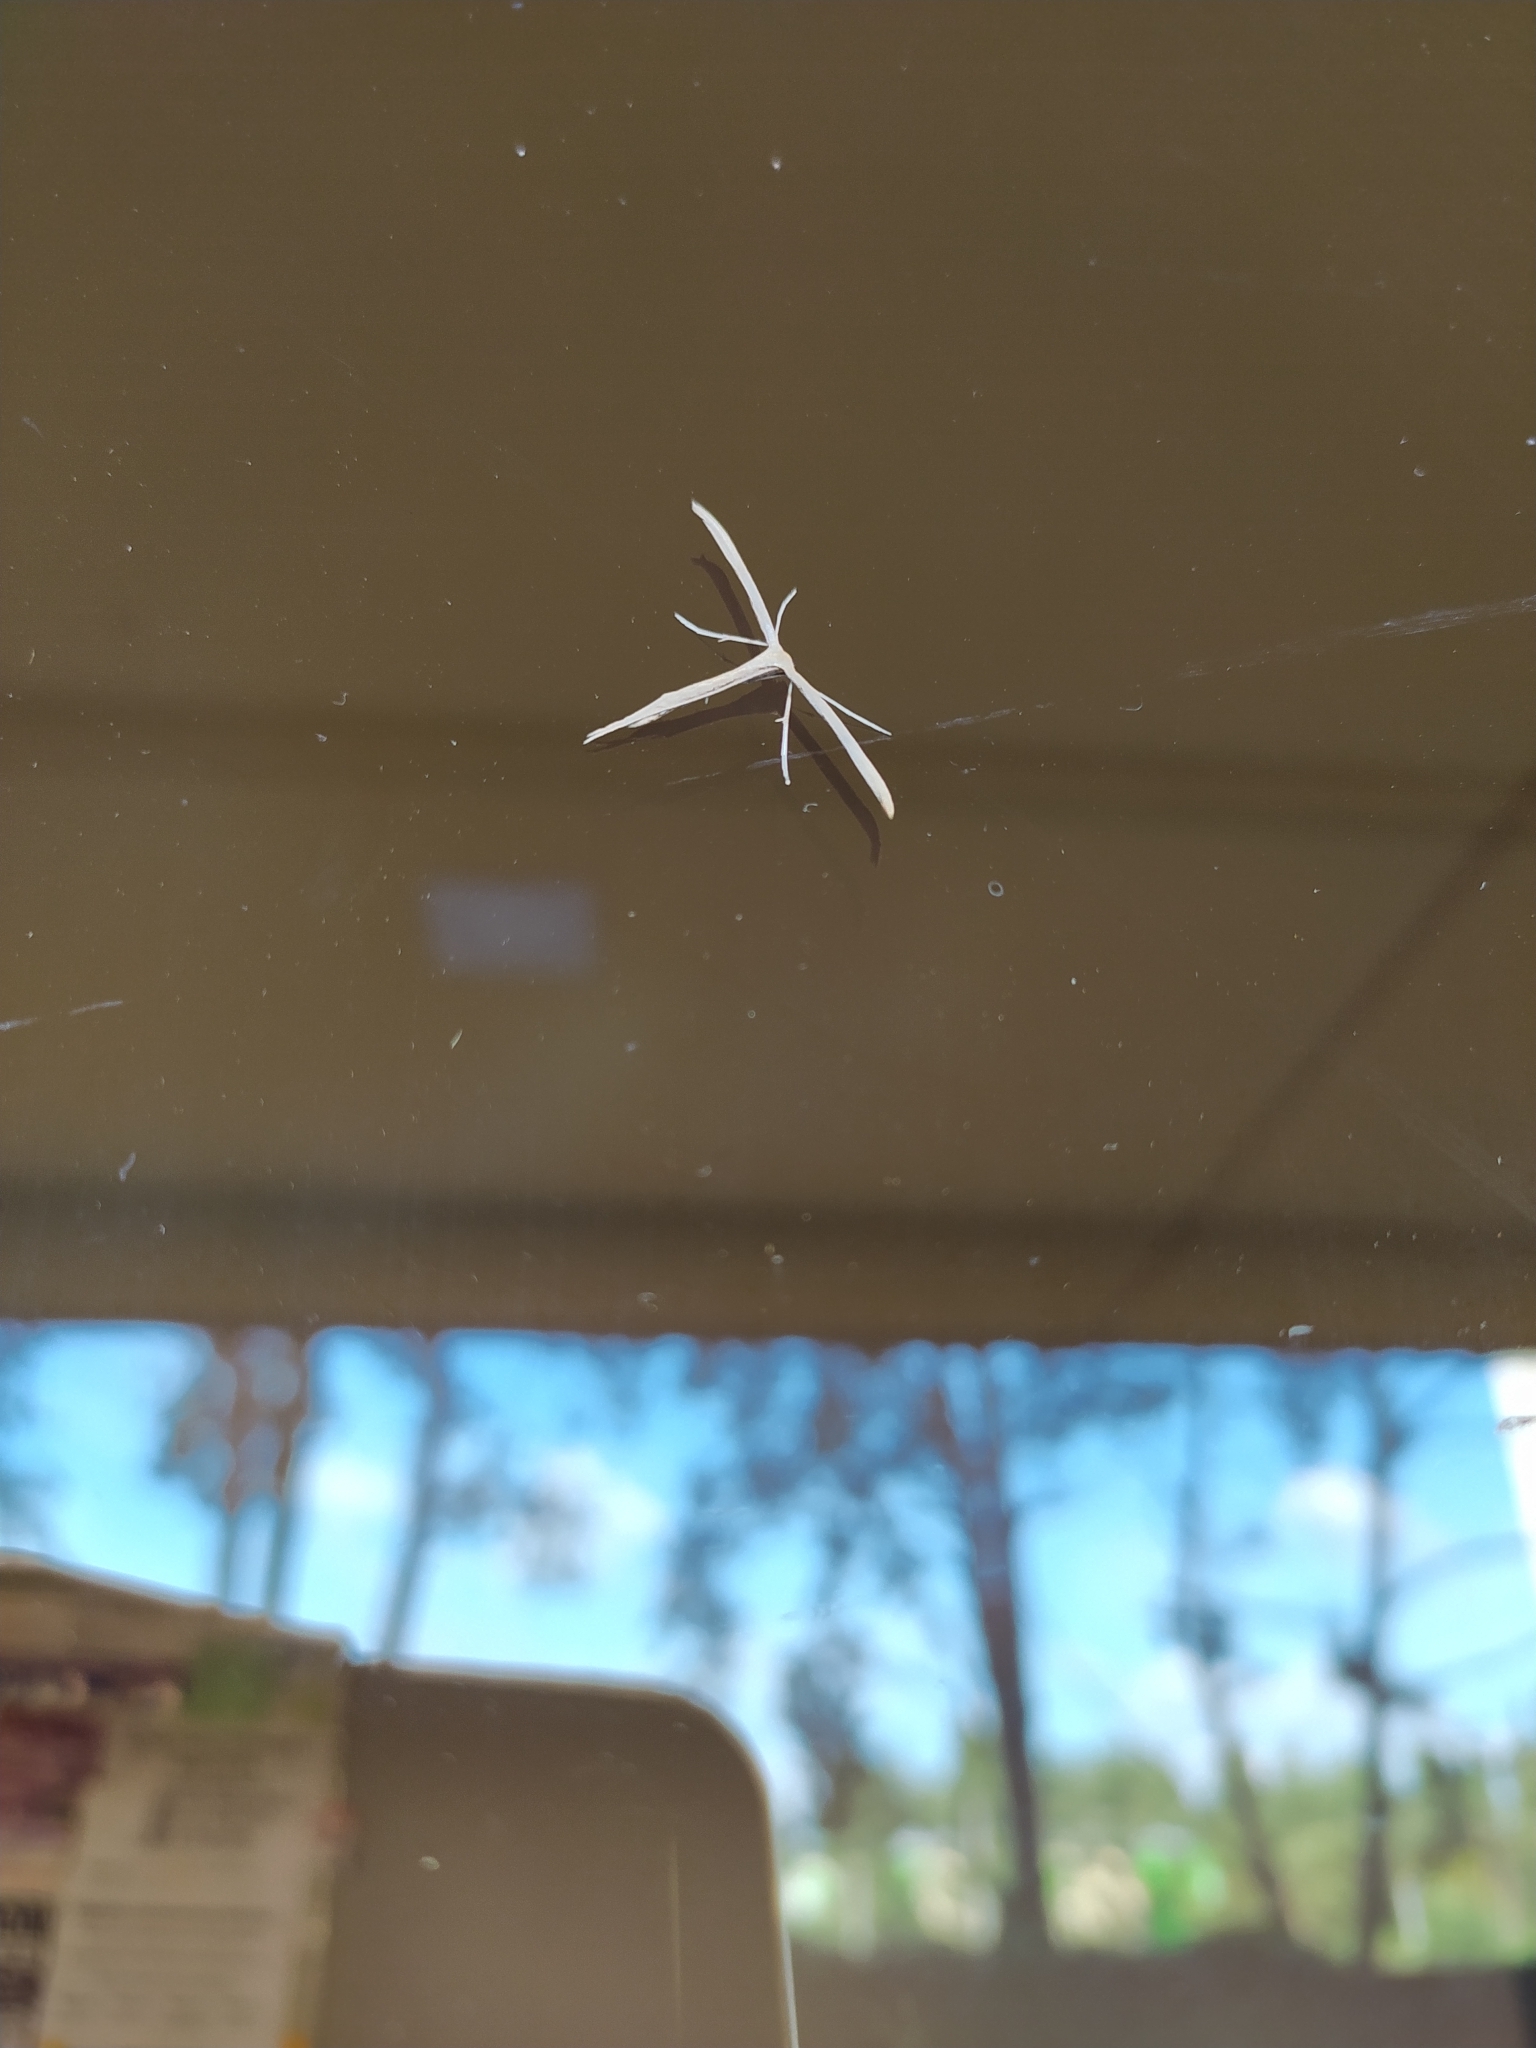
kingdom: Animalia
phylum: Arthropoda
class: Insecta
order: Lepidoptera
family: Pterophoridae
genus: Emmelina
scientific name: Emmelina monodactyla
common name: Common plume
